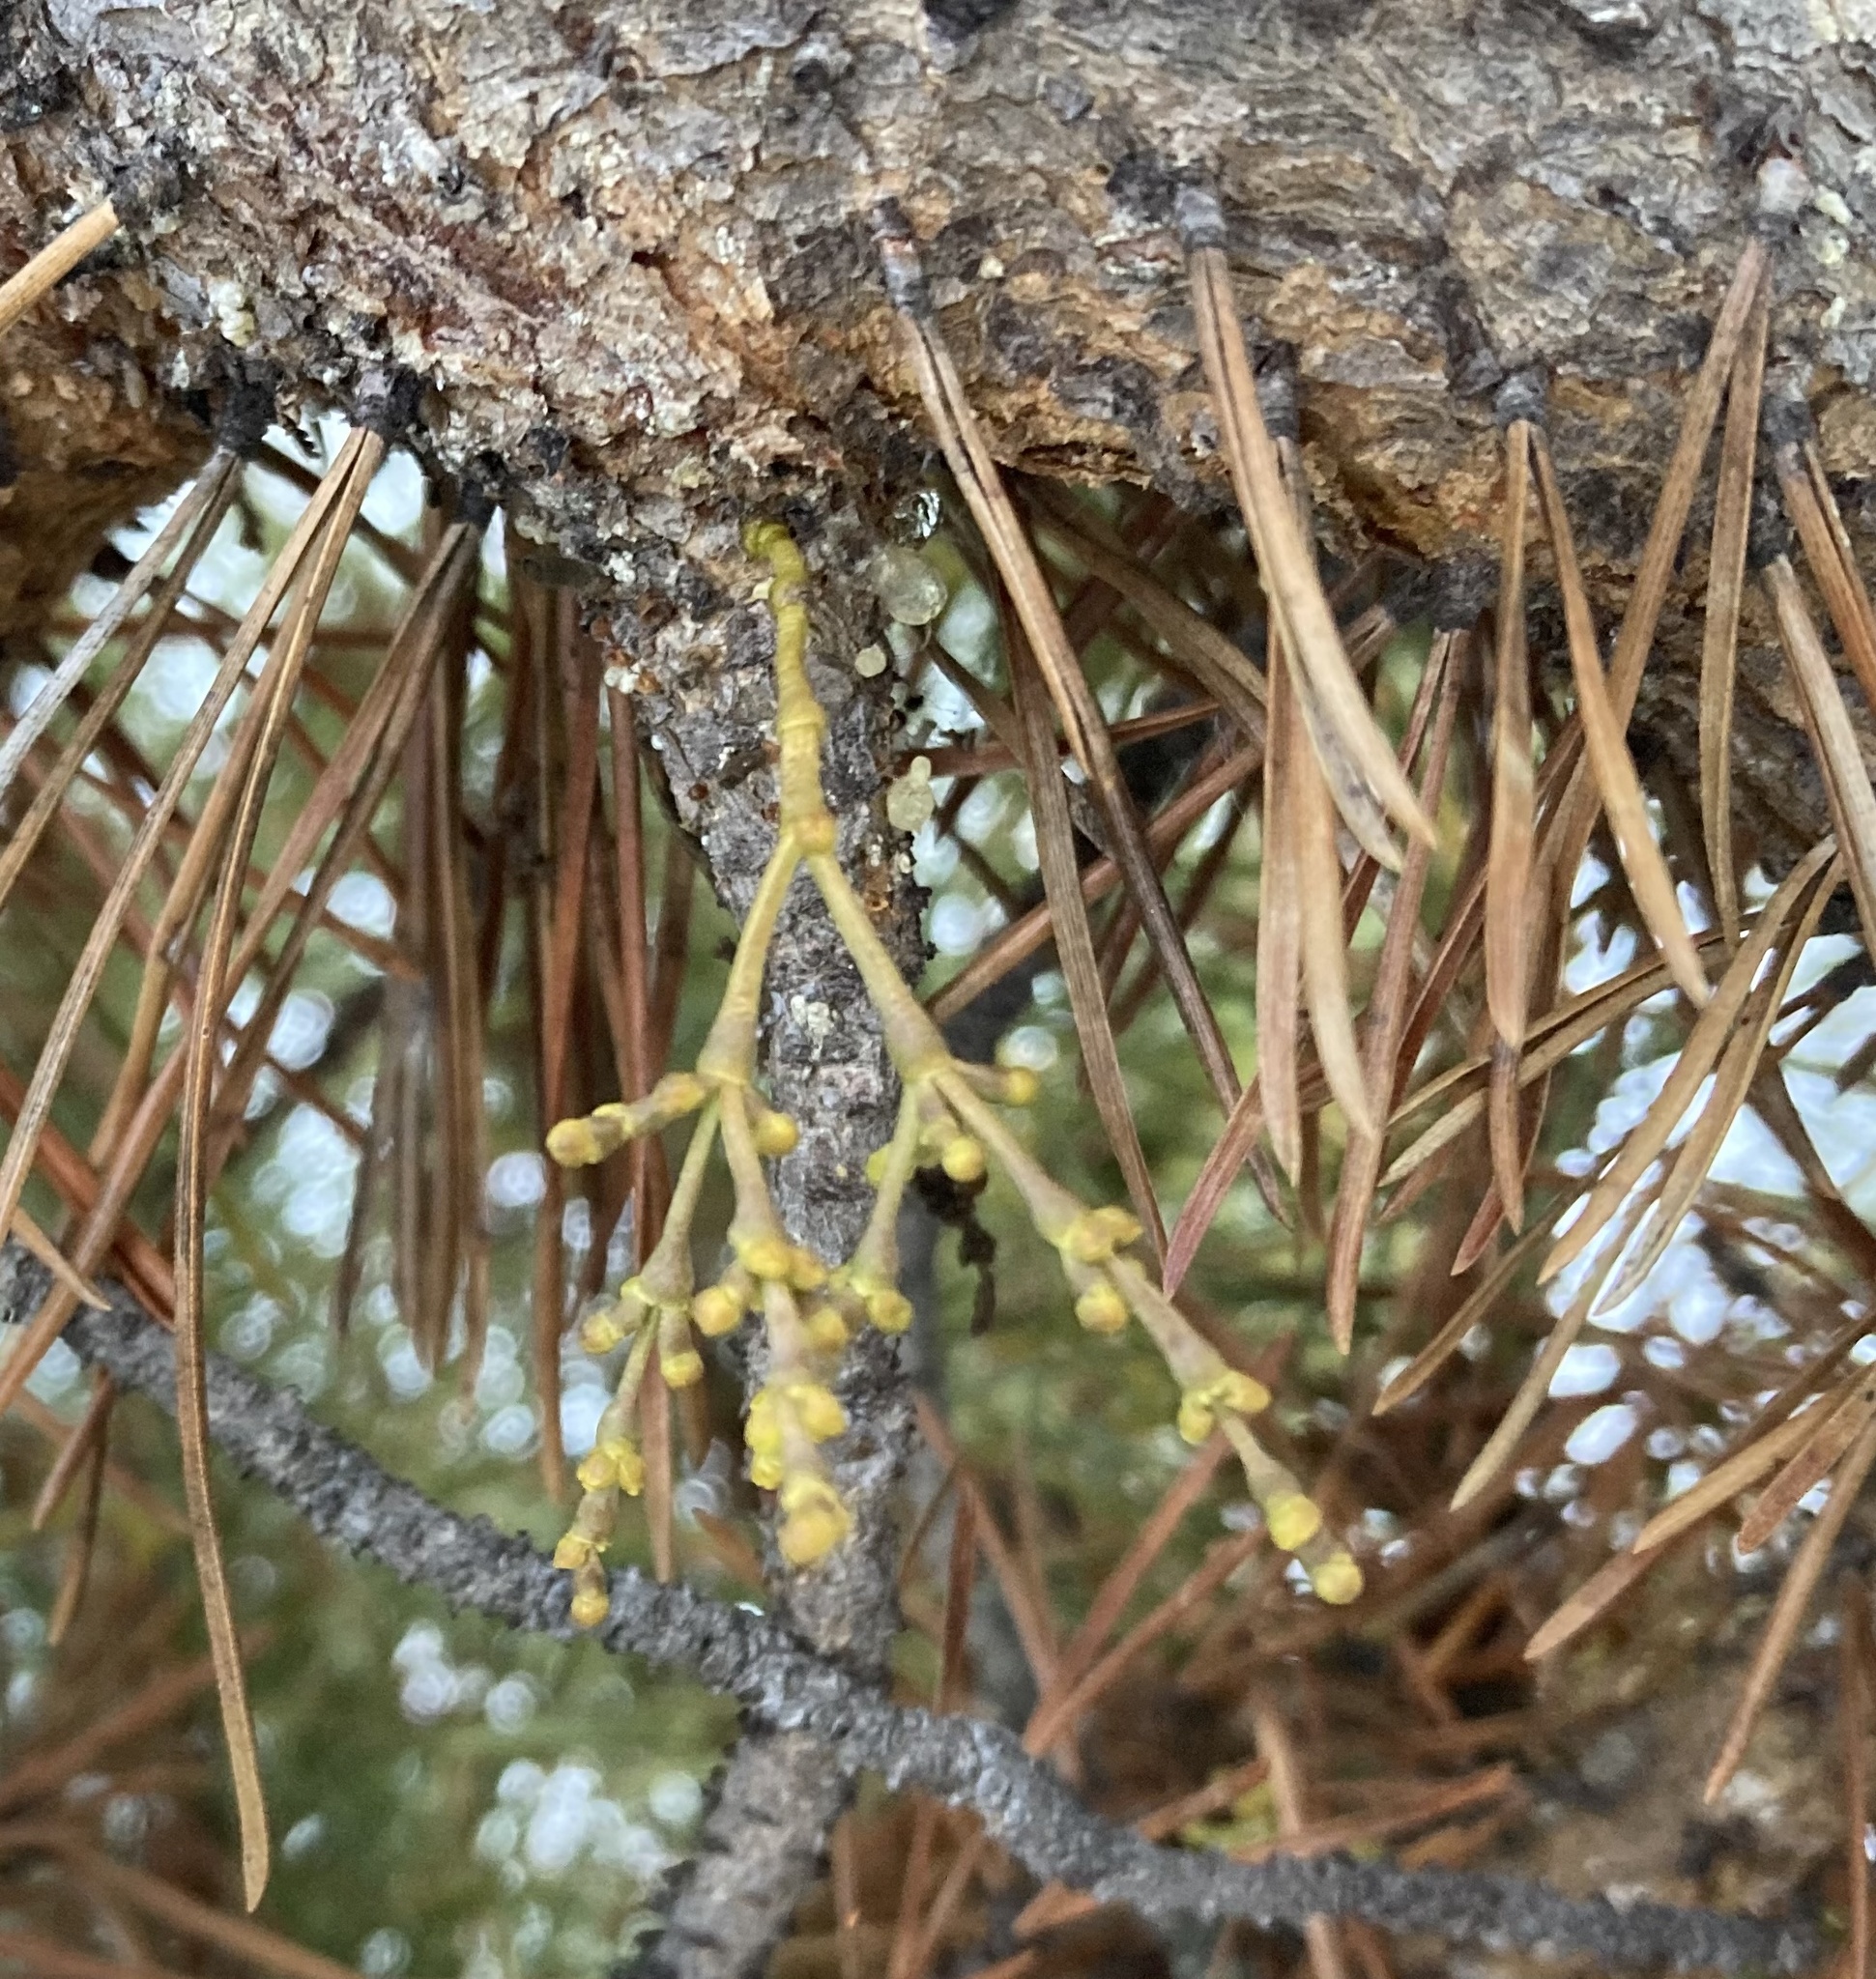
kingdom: Plantae
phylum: Tracheophyta
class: Magnoliopsida
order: Santalales
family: Viscaceae
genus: Arceuthobium
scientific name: Arceuthobium americanum
